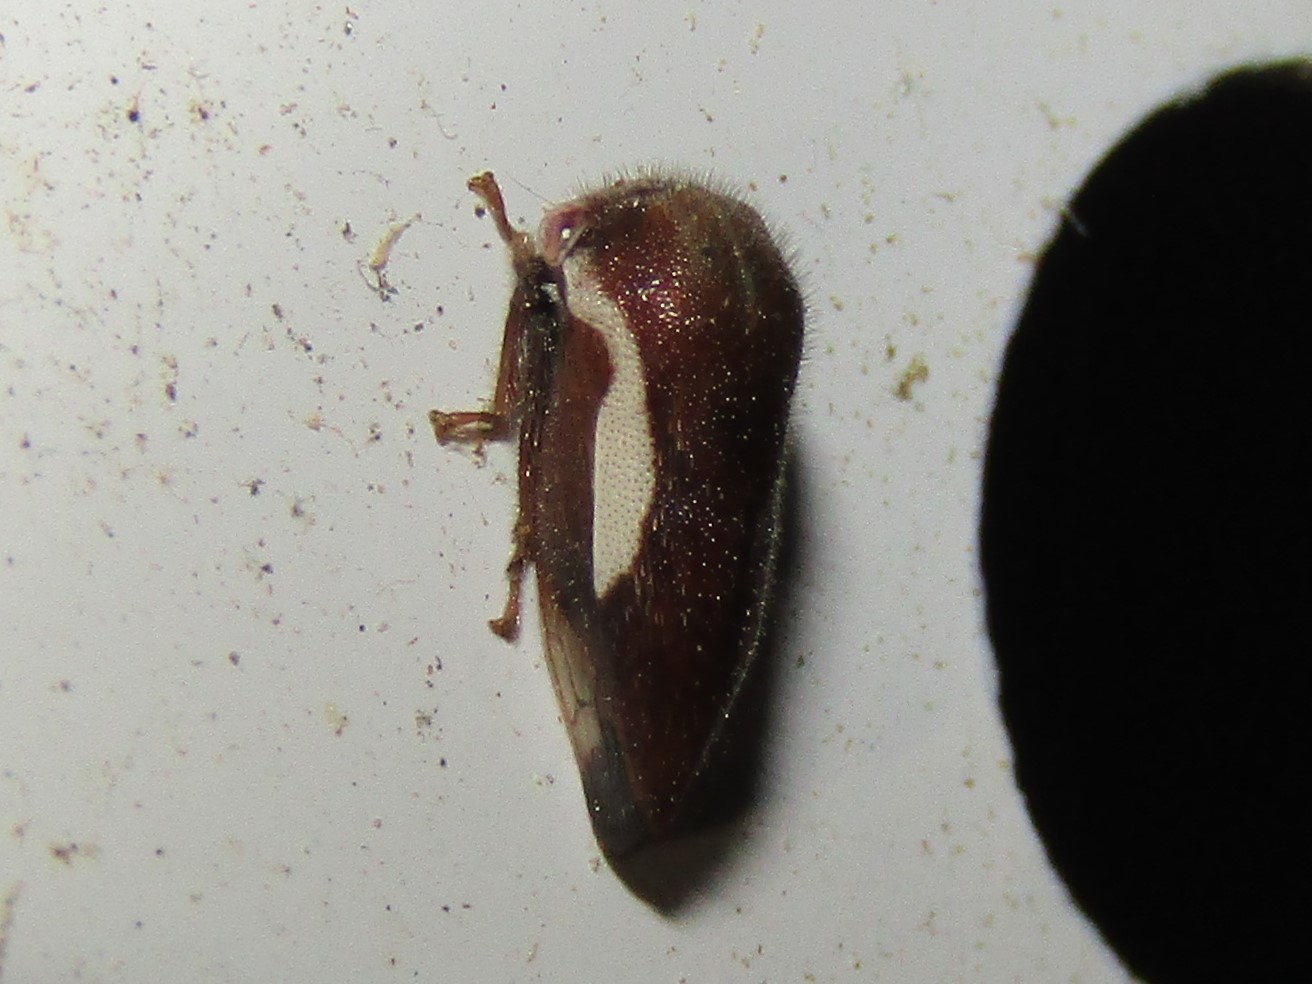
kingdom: Animalia
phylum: Arthropoda
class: Insecta
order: Hemiptera
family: Membracidae
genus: Ophiderma
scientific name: Ophiderma flavicephala
